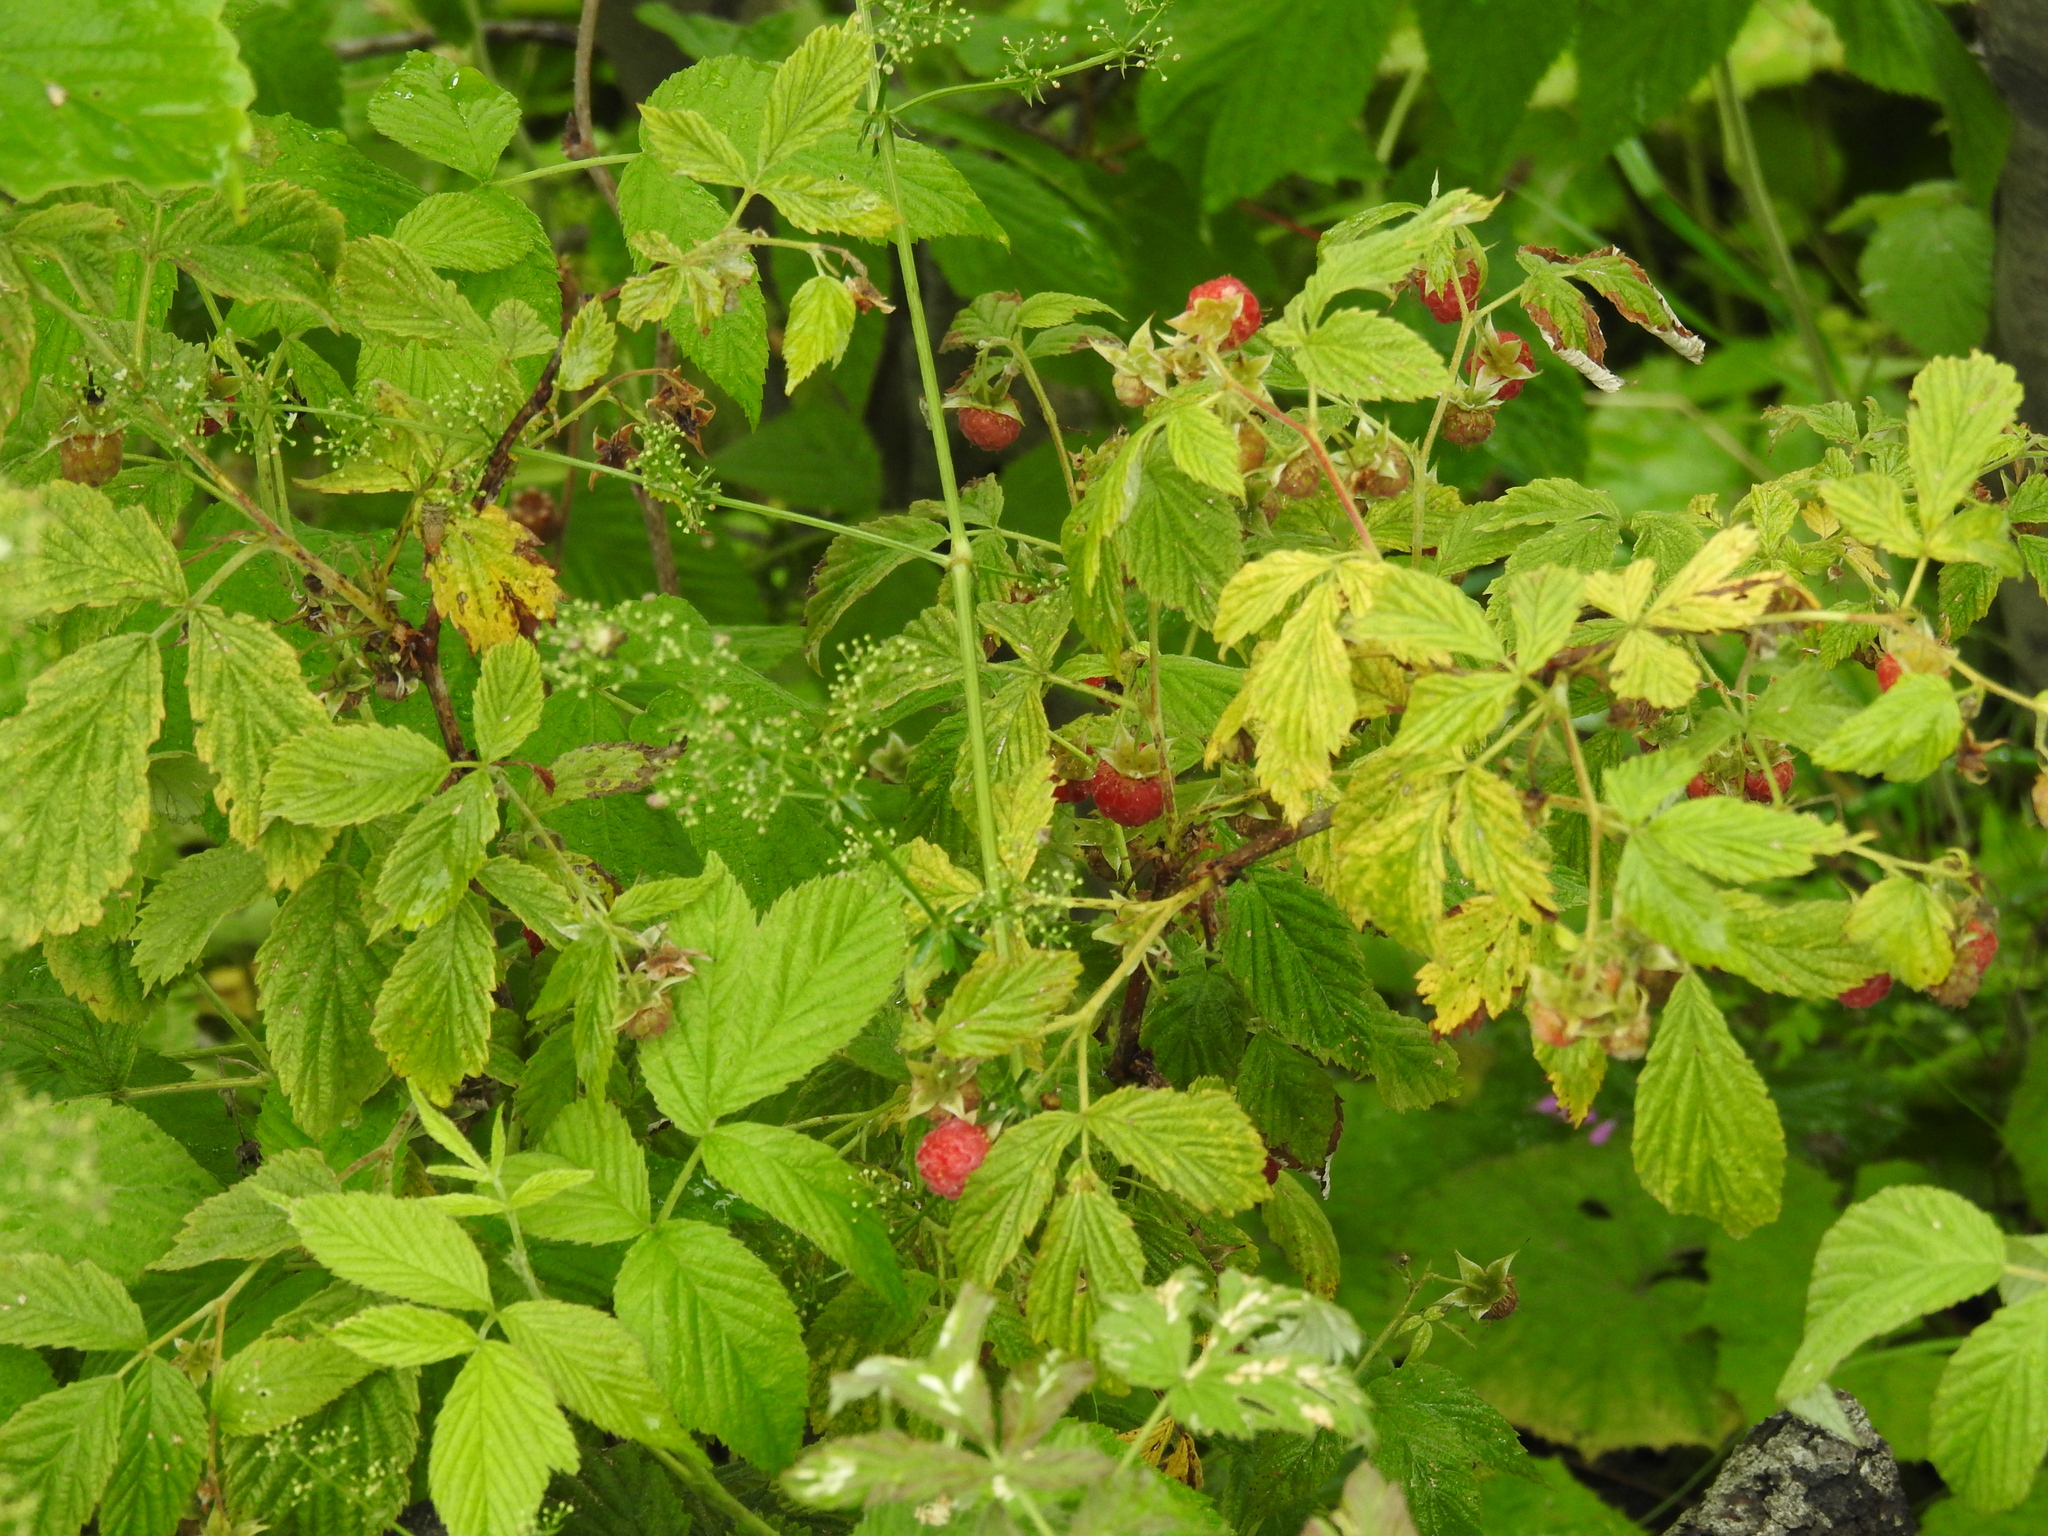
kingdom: Plantae
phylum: Tracheophyta
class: Magnoliopsida
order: Rosales
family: Rosaceae
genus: Rubus
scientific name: Rubus idaeus
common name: Raspberry
